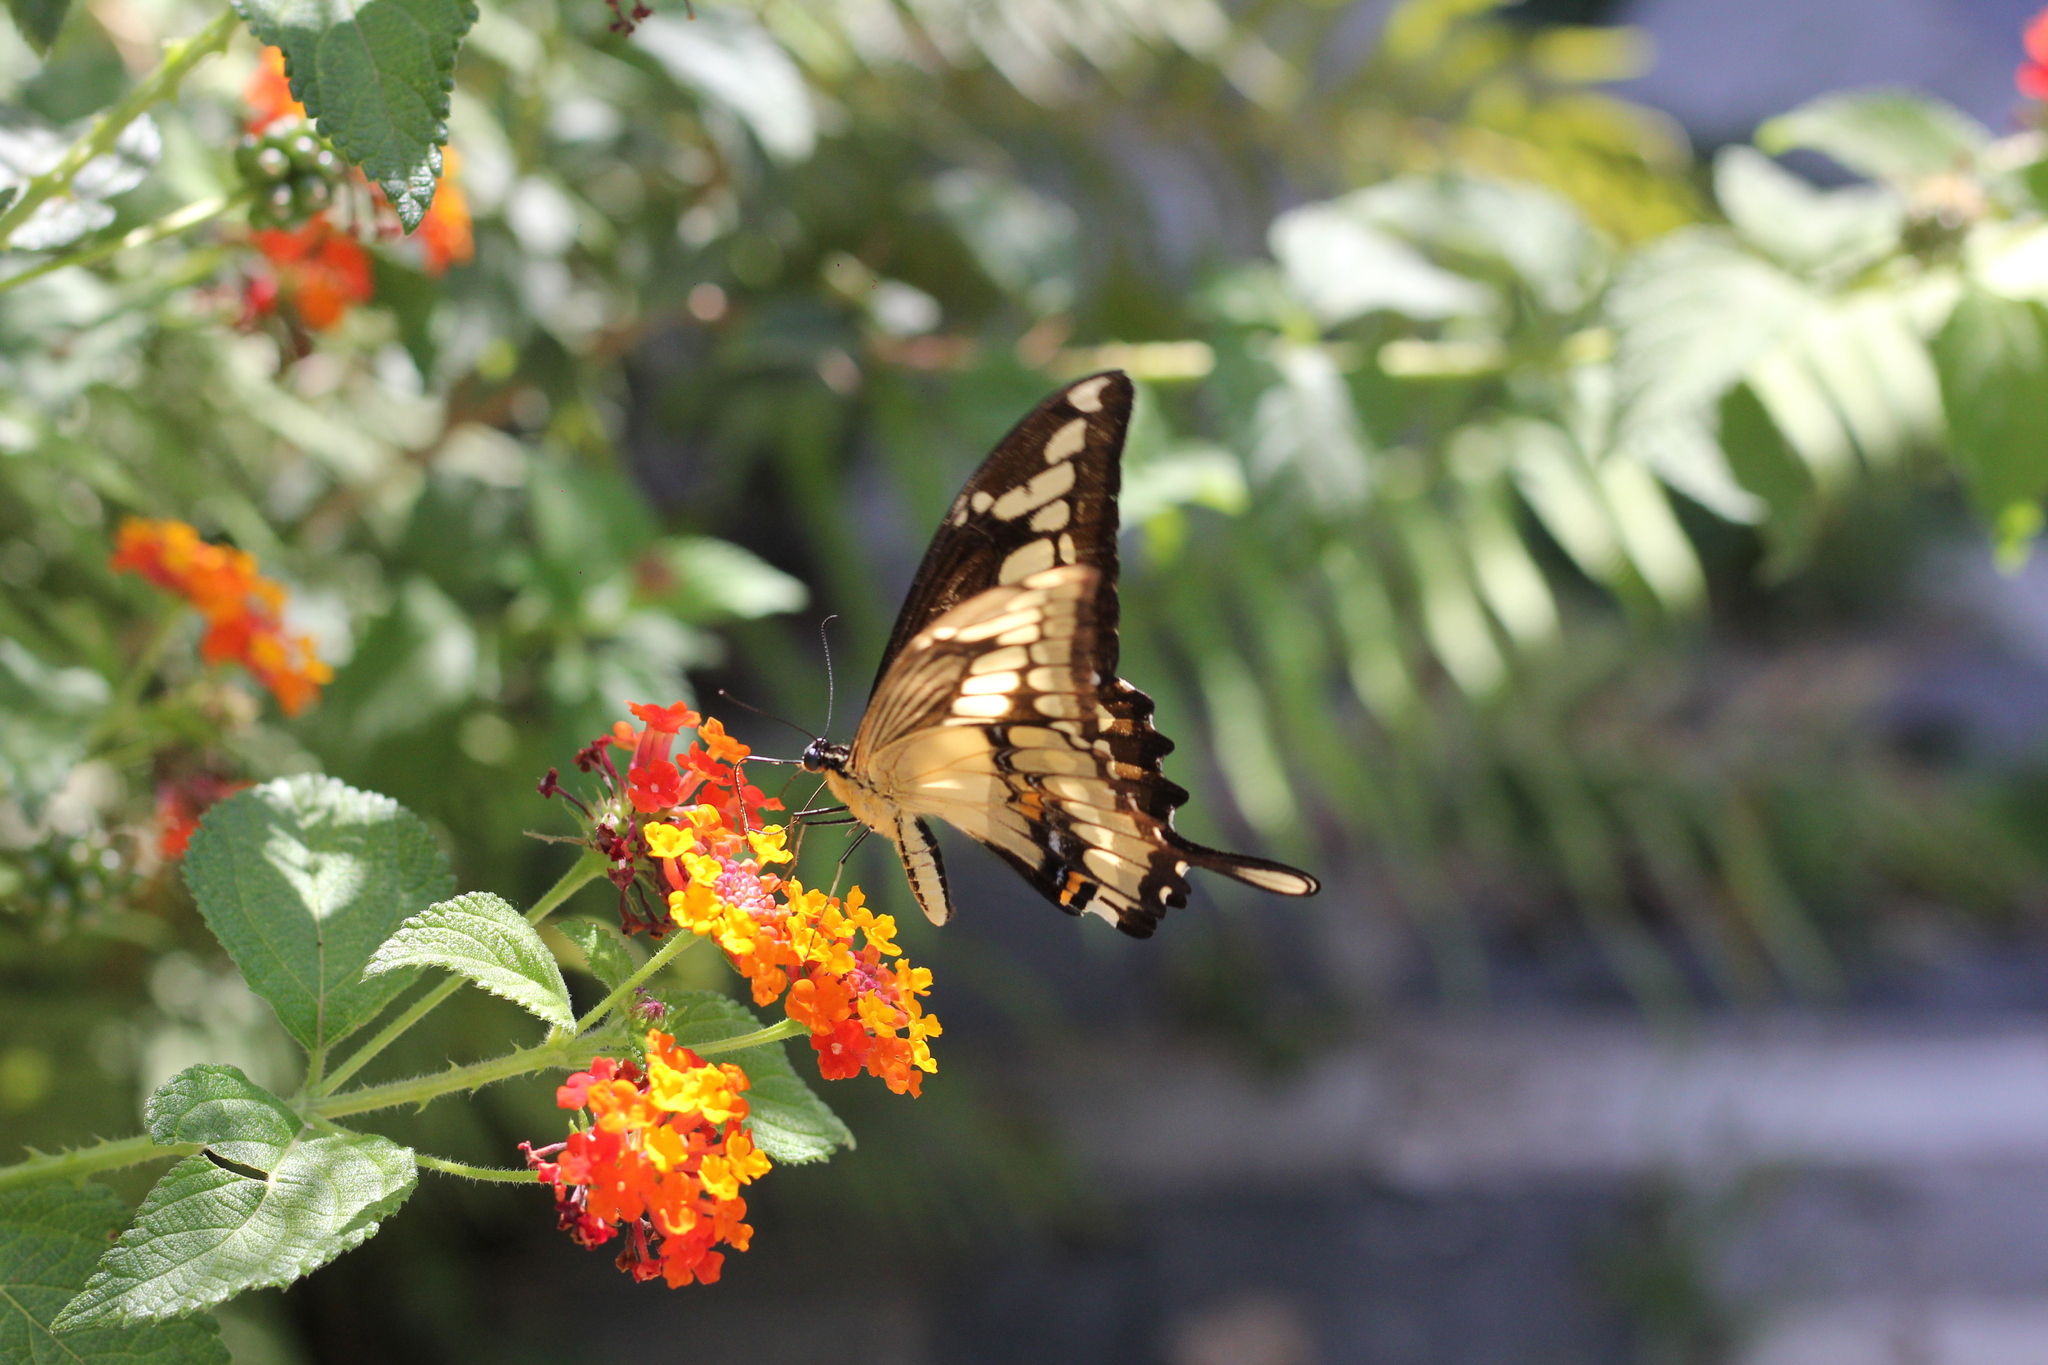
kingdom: Animalia
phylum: Arthropoda
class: Insecta
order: Lepidoptera
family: Papilionidae
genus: Papilio
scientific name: Papilio thoas
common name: King swallowtail
